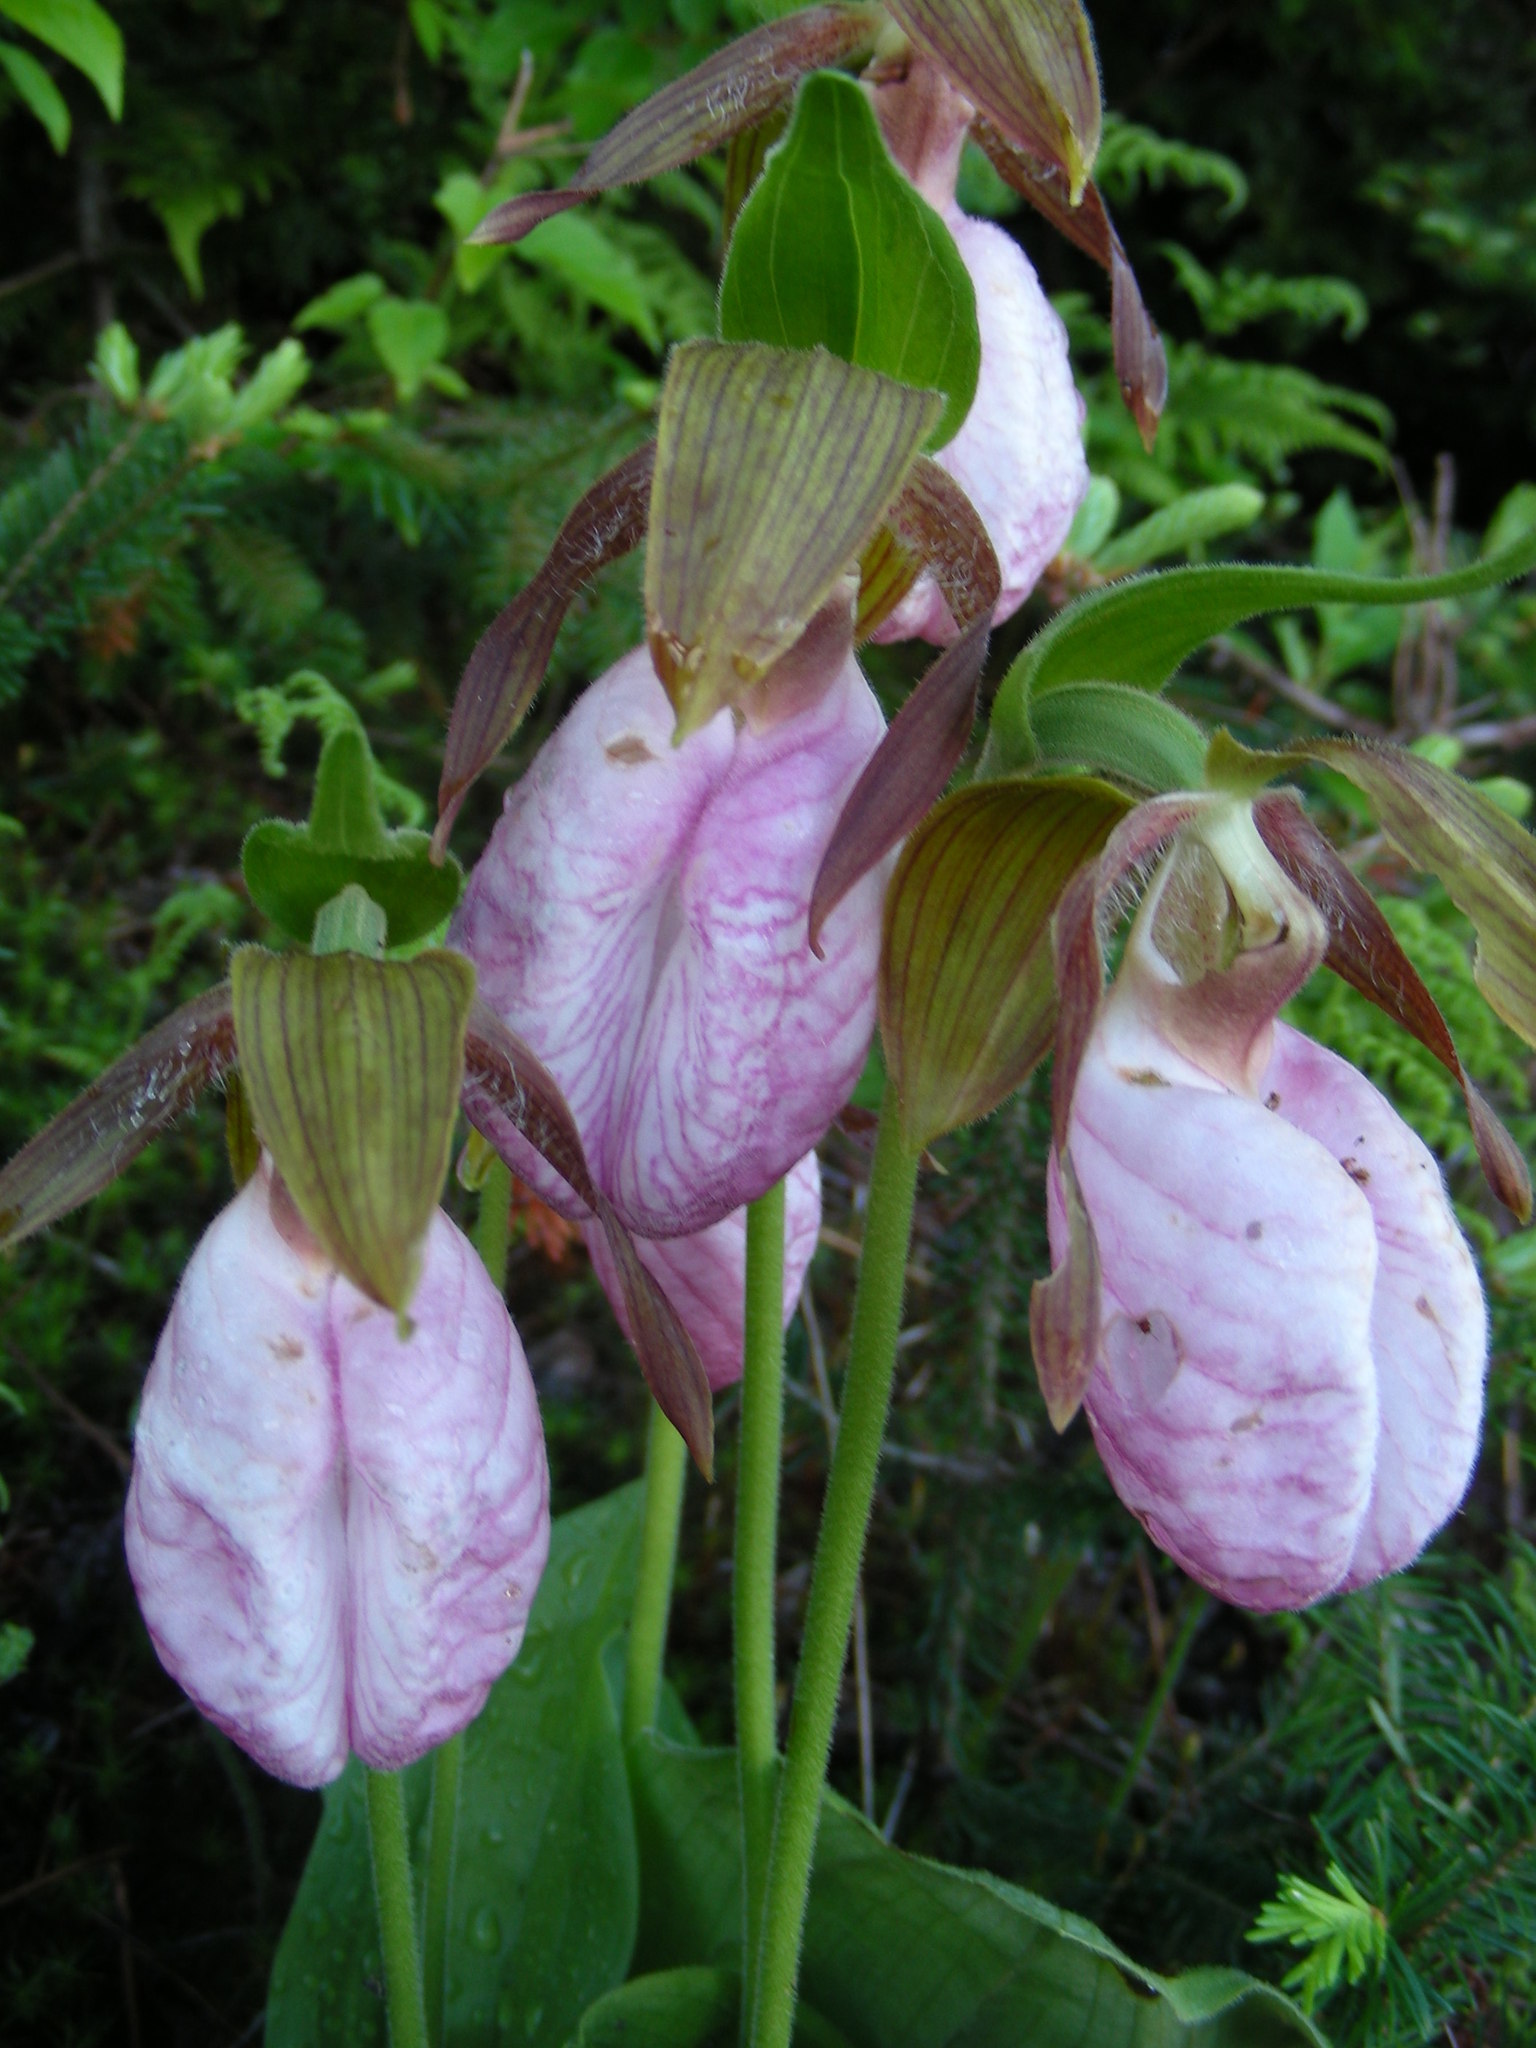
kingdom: Plantae
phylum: Tracheophyta
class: Liliopsida
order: Asparagales
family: Orchidaceae
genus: Cypripedium
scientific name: Cypripedium acaule
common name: Pink lady's-slipper
